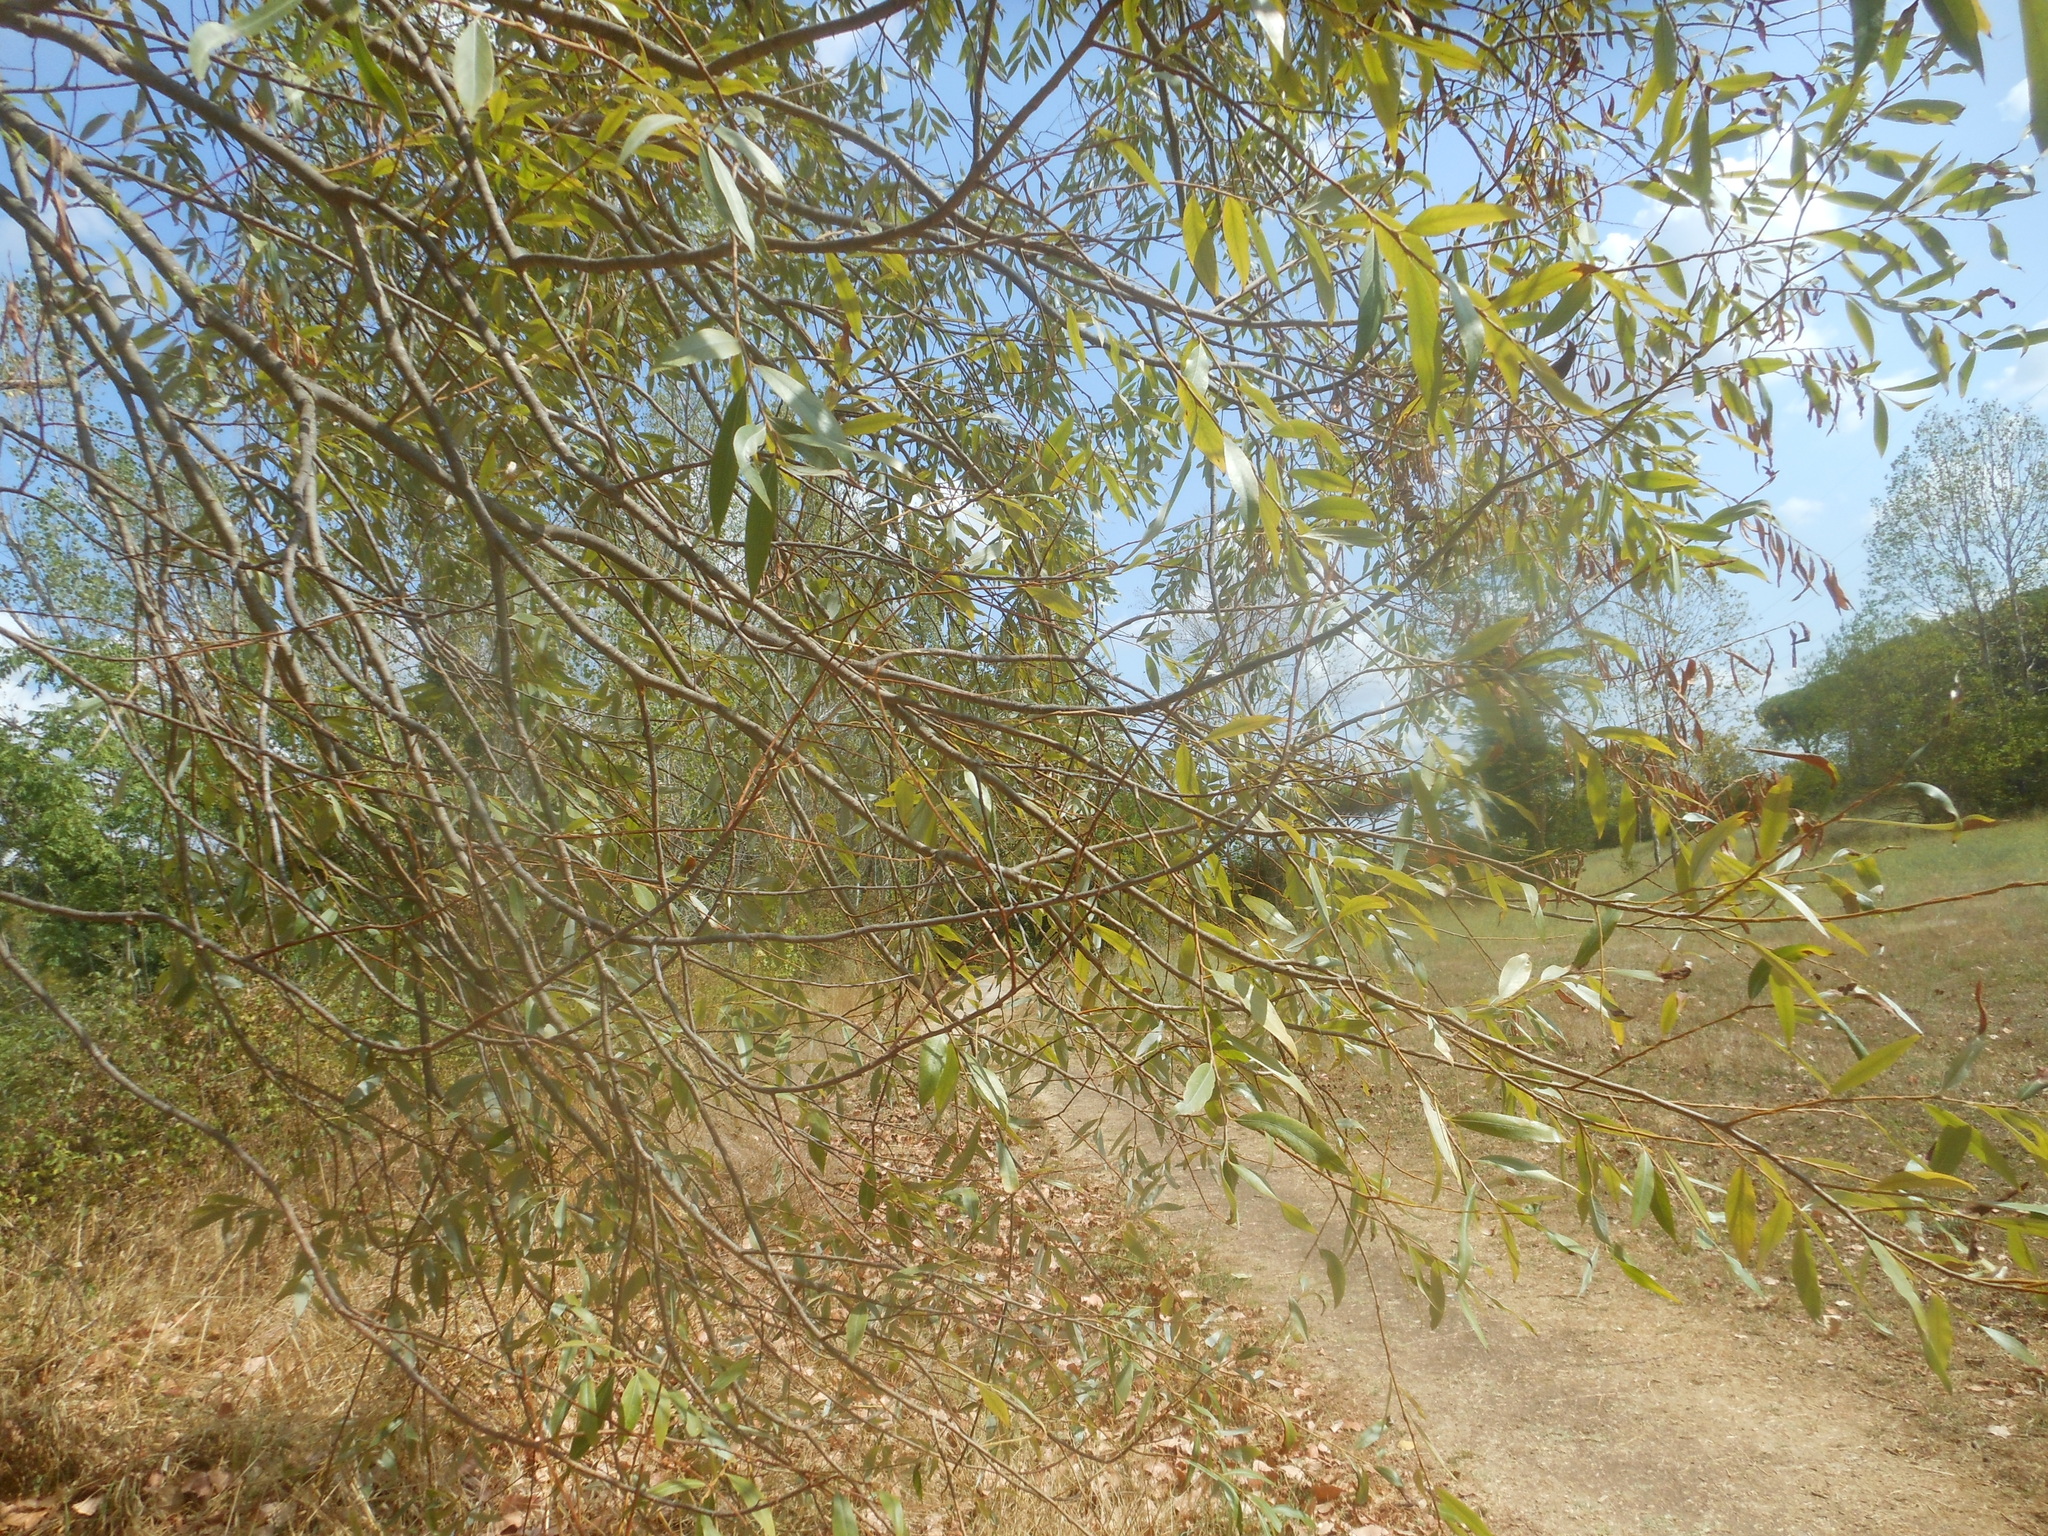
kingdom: Plantae
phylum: Tracheophyta
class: Magnoliopsida
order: Malpighiales
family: Salicaceae
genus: Salix
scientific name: Salix alba
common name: White willow
